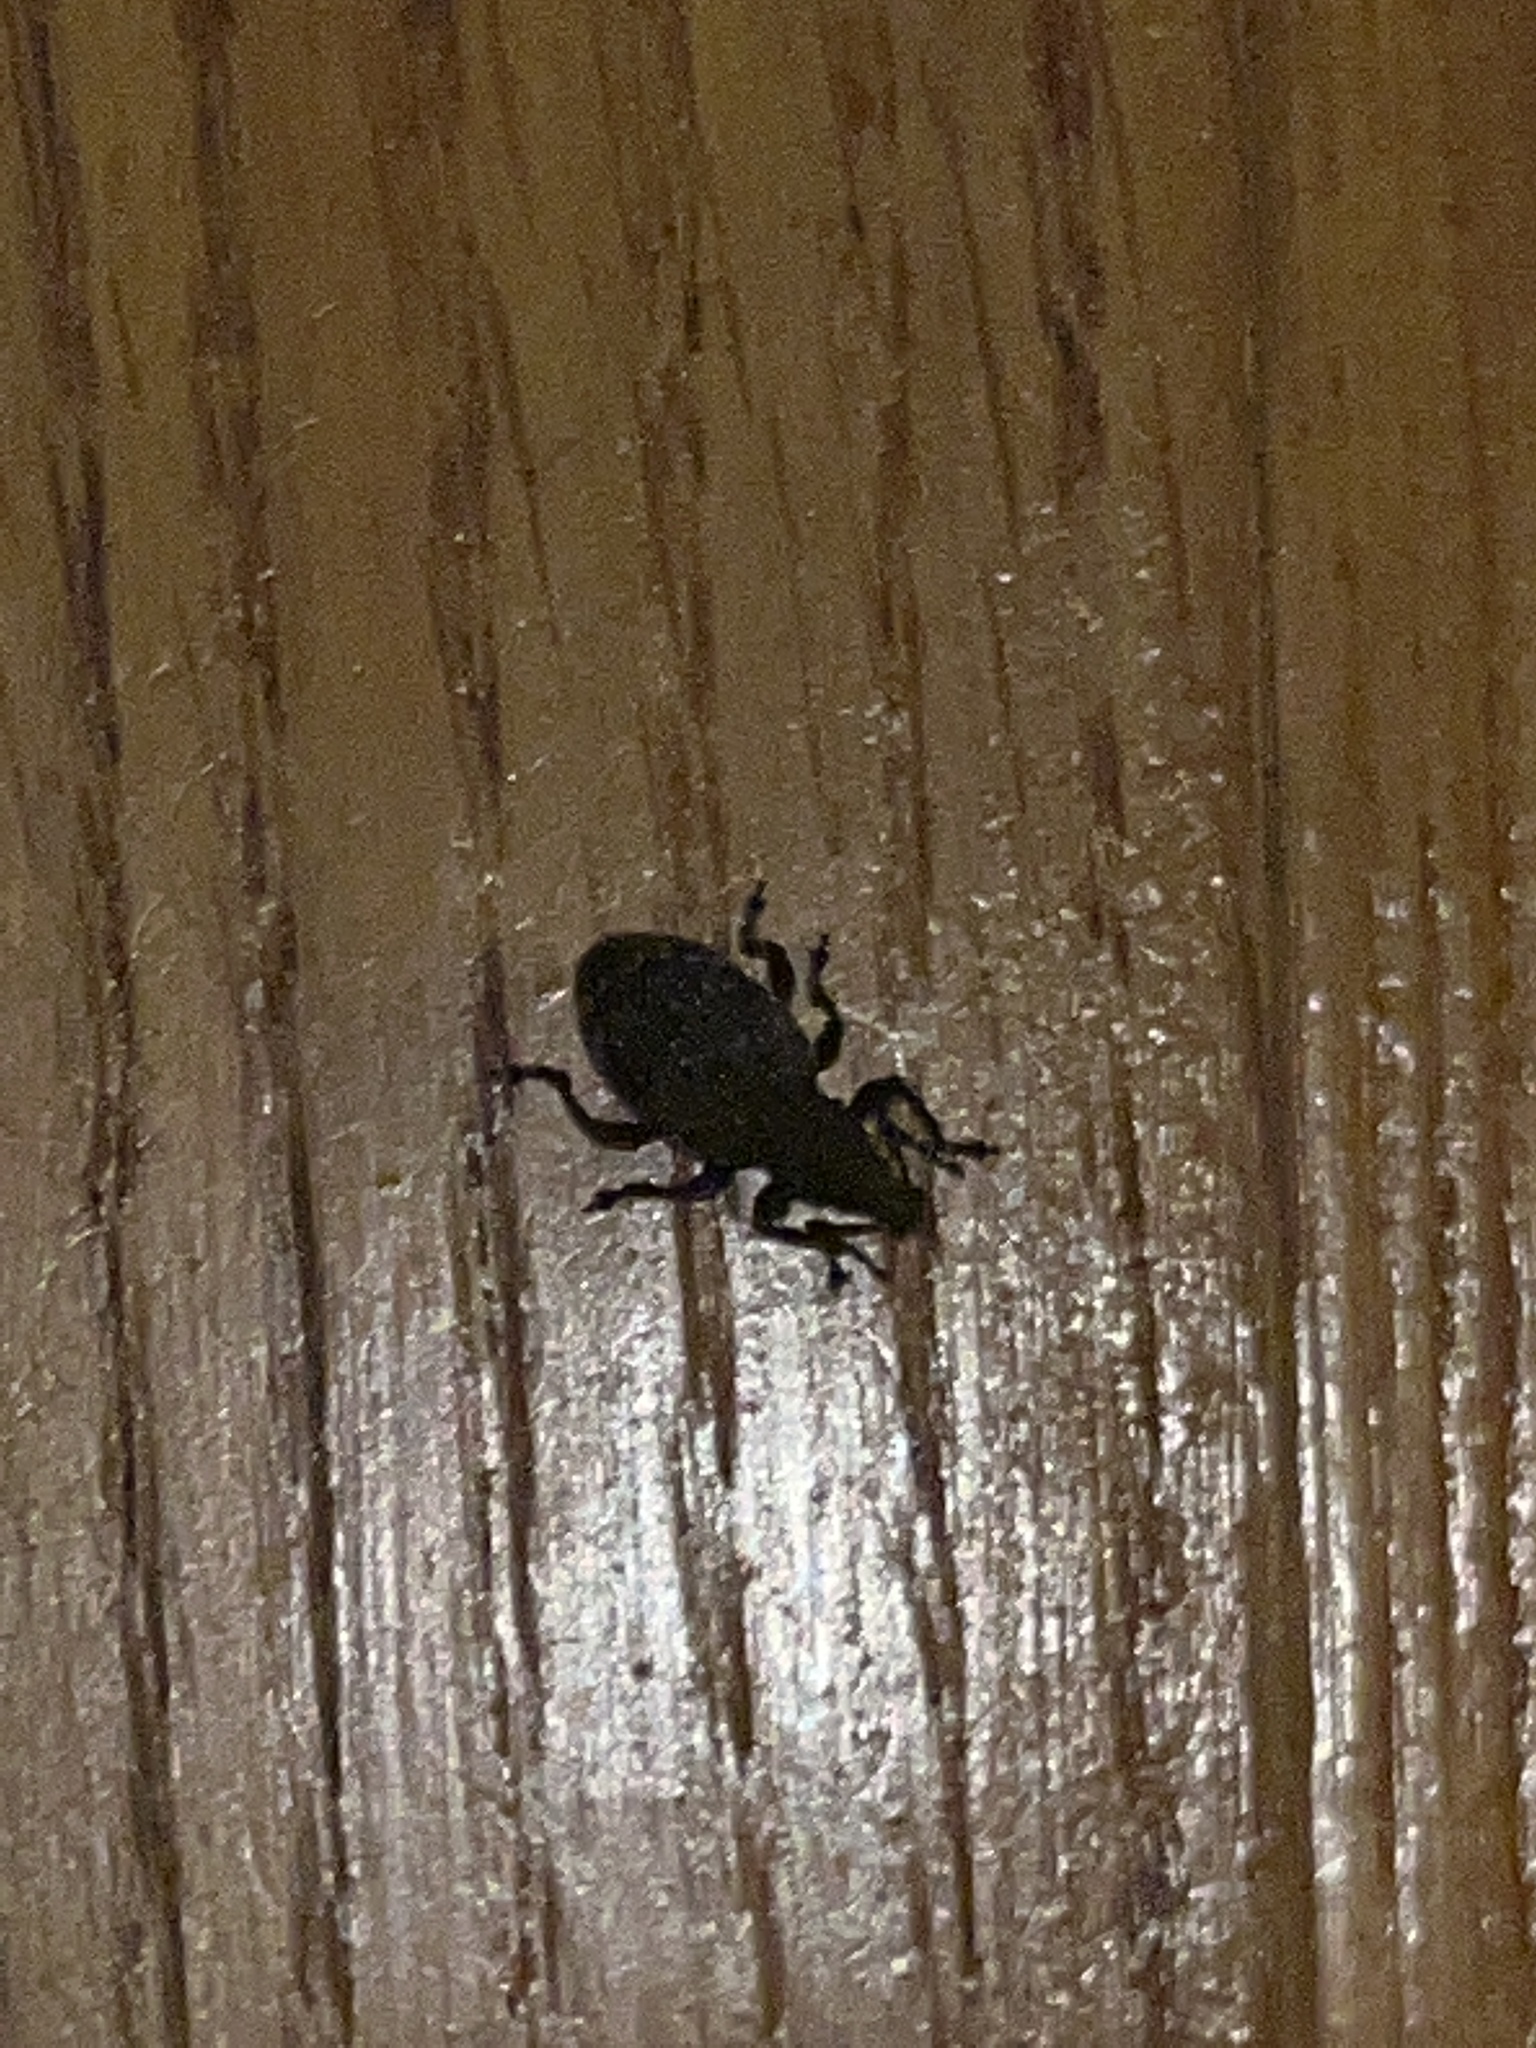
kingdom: Animalia
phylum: Arthropoda
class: Insecta
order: Coleoptera
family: Curculionidae
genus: Otiorhynchus
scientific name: Otiorhynchus sulcatus
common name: Black vine weevil
